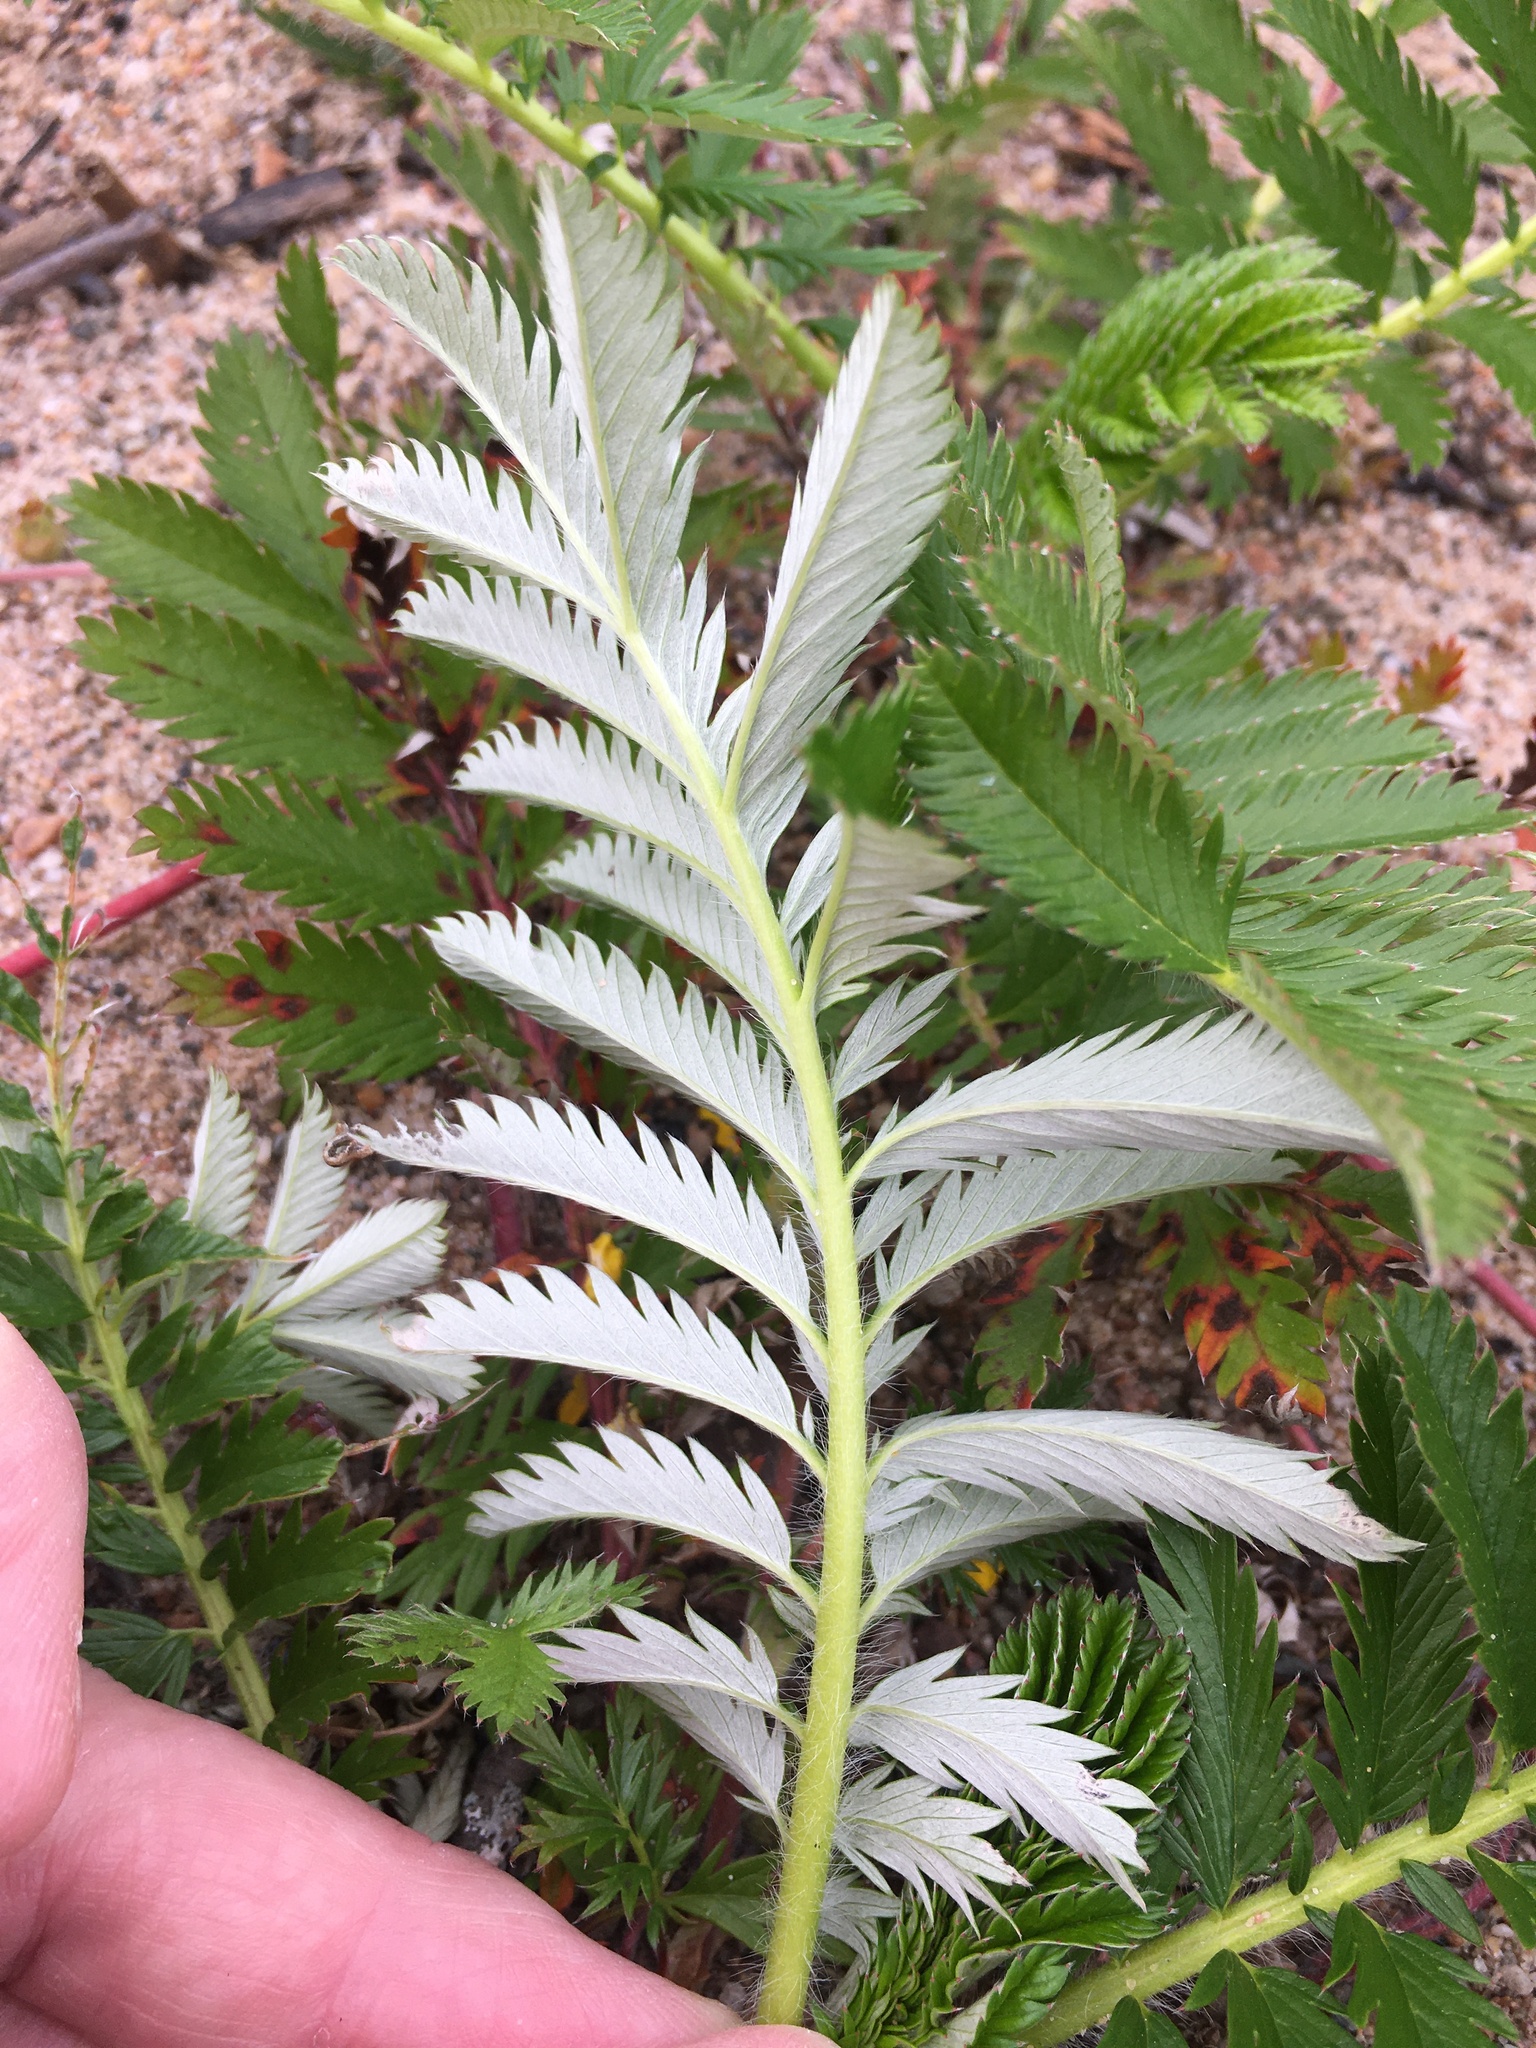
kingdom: Plantae
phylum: Tracheophyta
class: Magnoliopsida
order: Rosales
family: Rosaceae
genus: Argentina
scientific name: Argentina anserina
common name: Common silverweed
